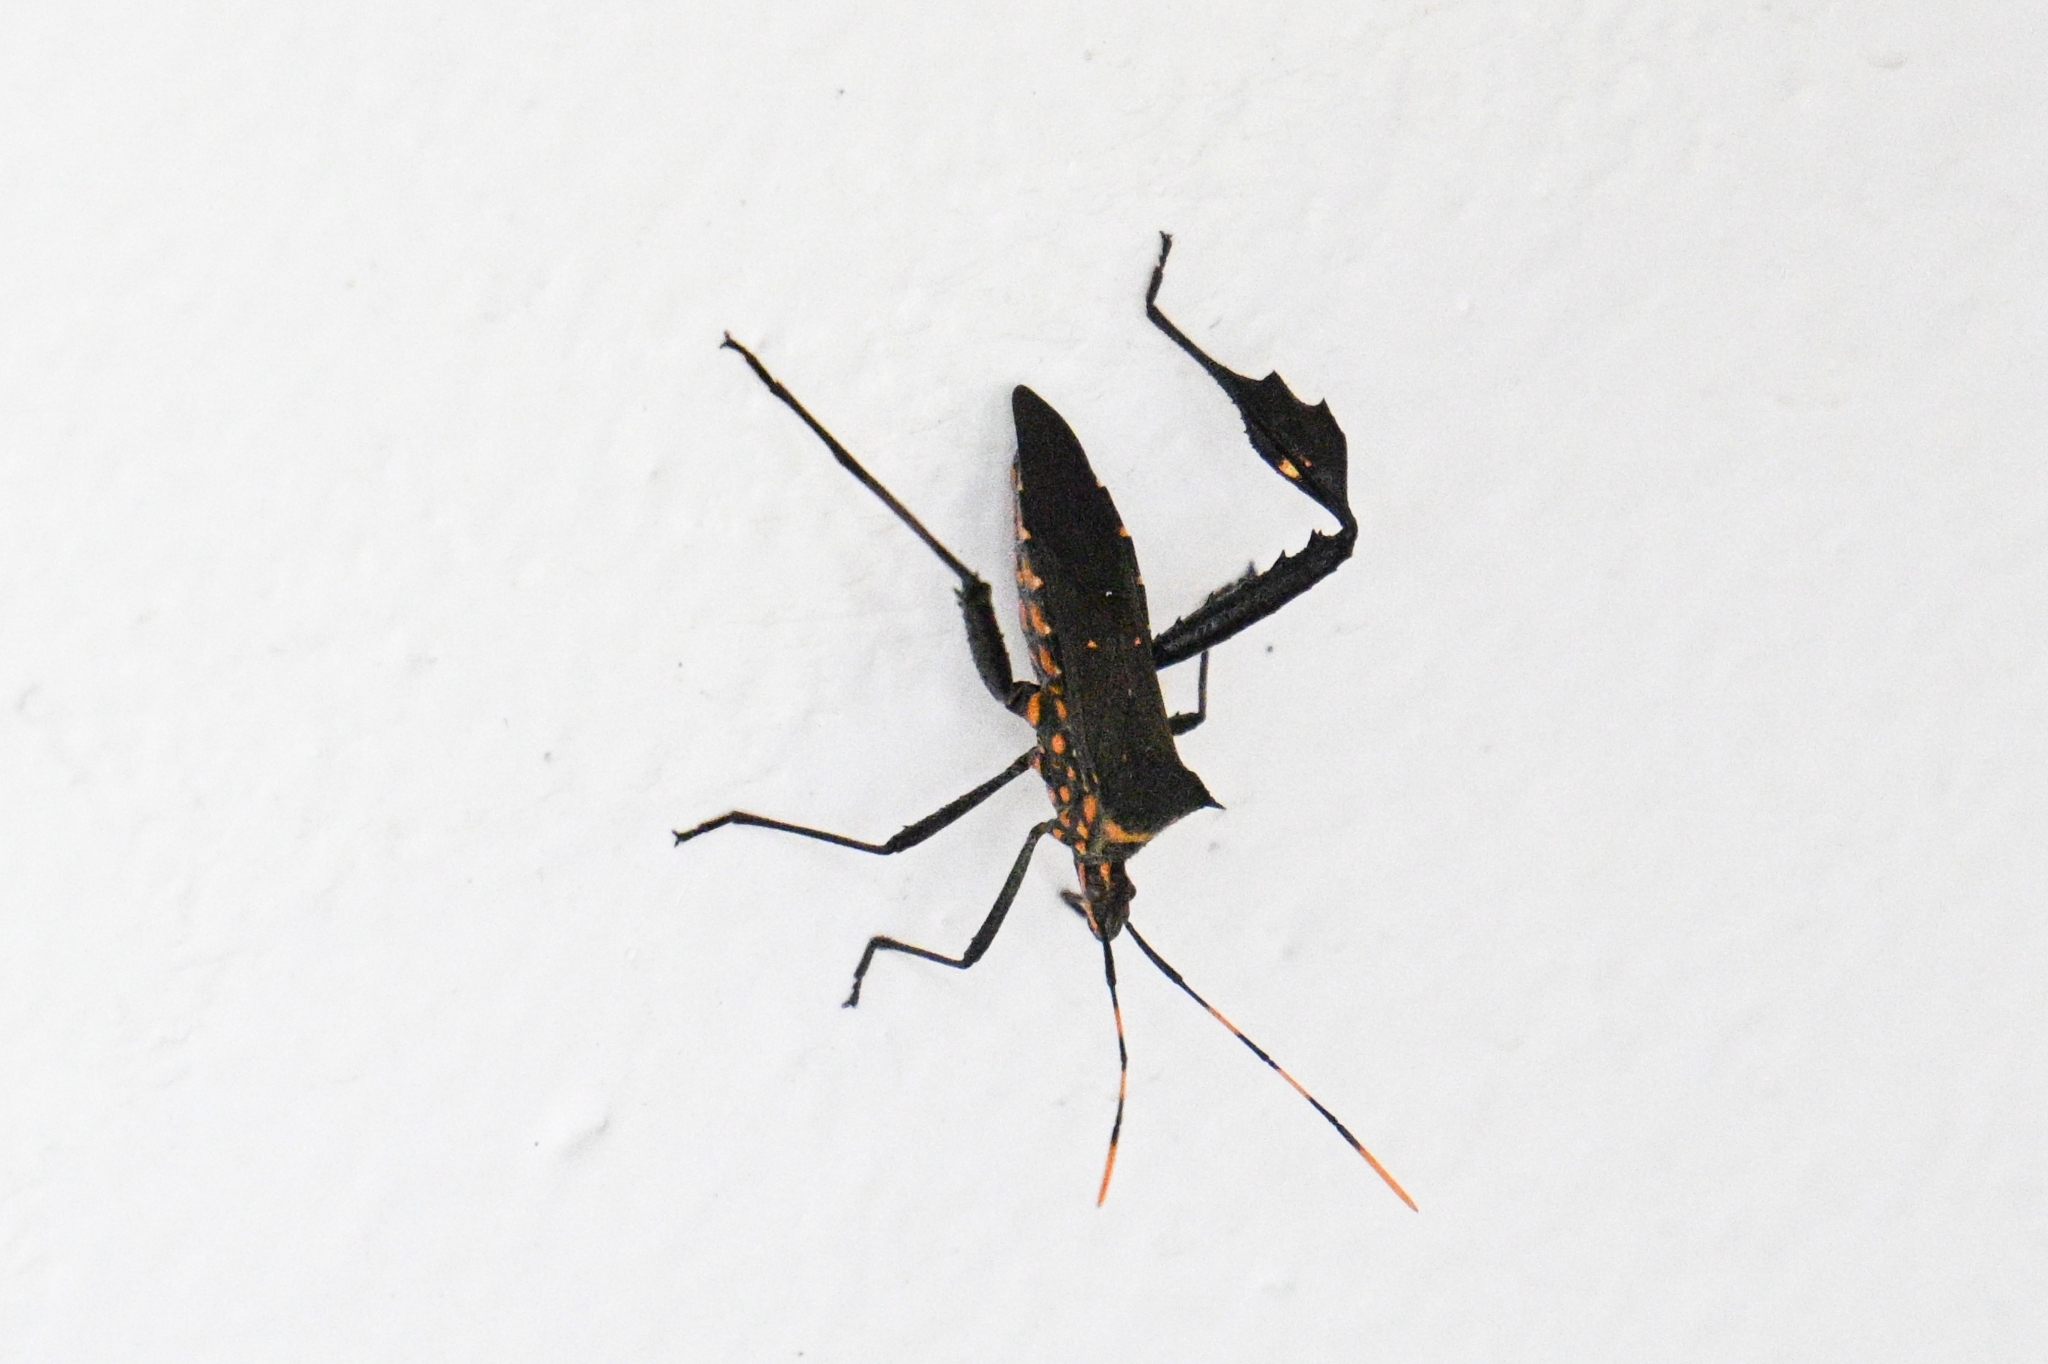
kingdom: Animalia
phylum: Arthropoda
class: Insecta
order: Hemiptera
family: Coreidae
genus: Leptoglossus
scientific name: Leptoglossus gonagra
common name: Citron bug
